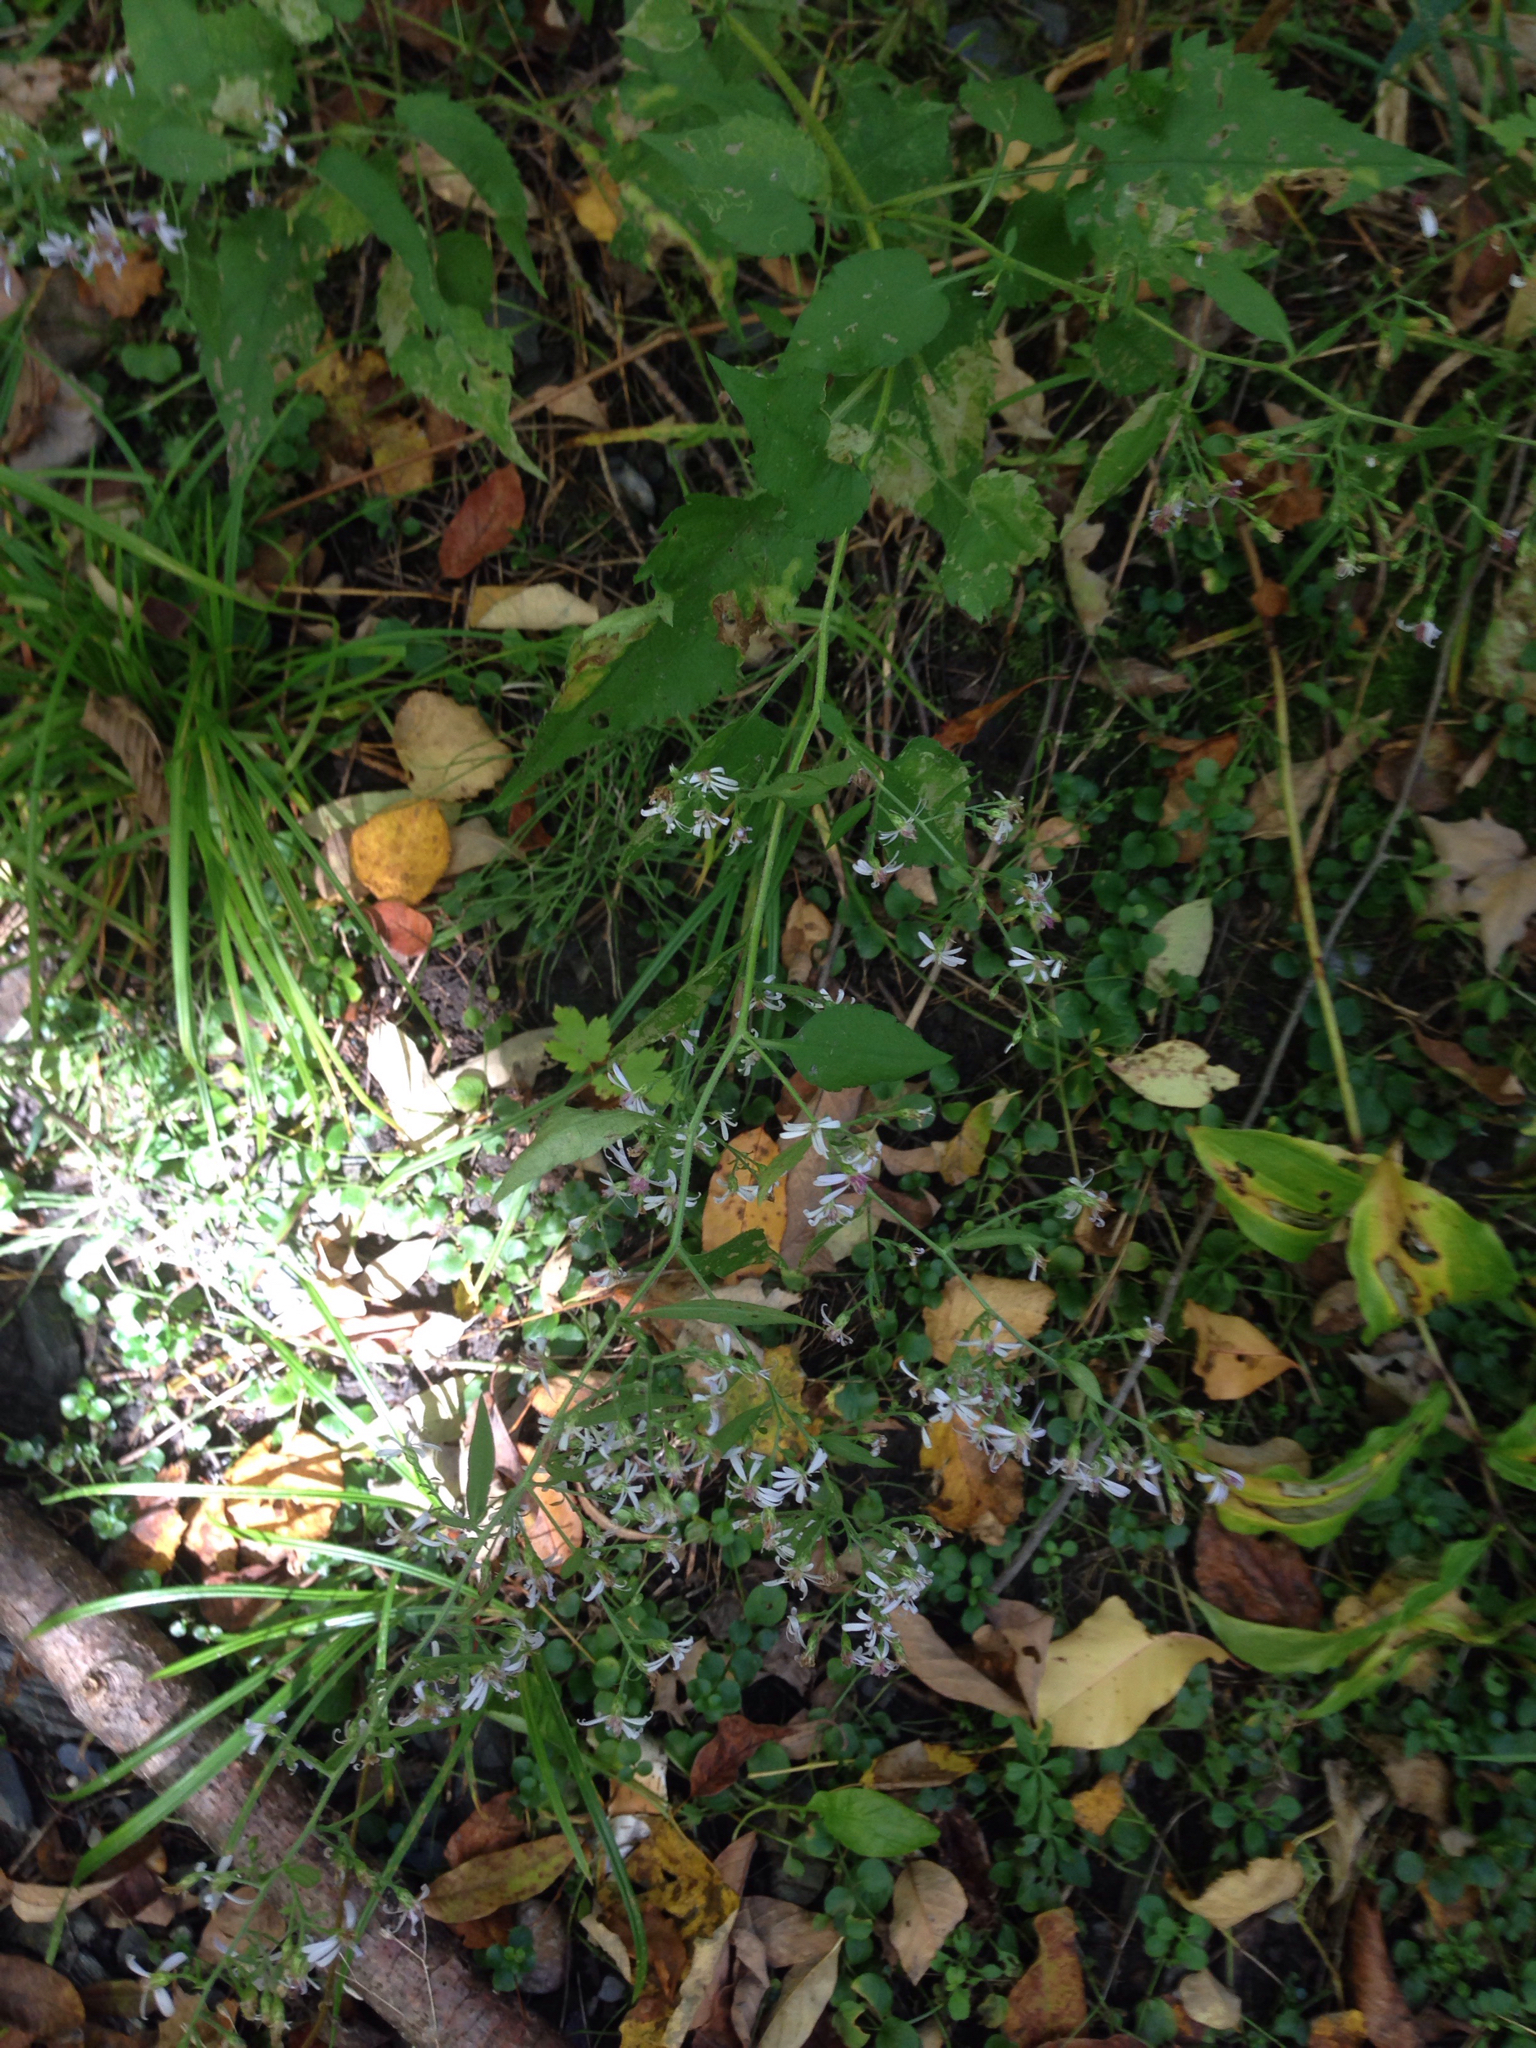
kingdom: Plantae
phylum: Tracheophyta
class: Magnoliopsida
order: Asterales
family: Asteraceae
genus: Symphyotrichum
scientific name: Symphyotrichum cordifolium
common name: Beeweed
